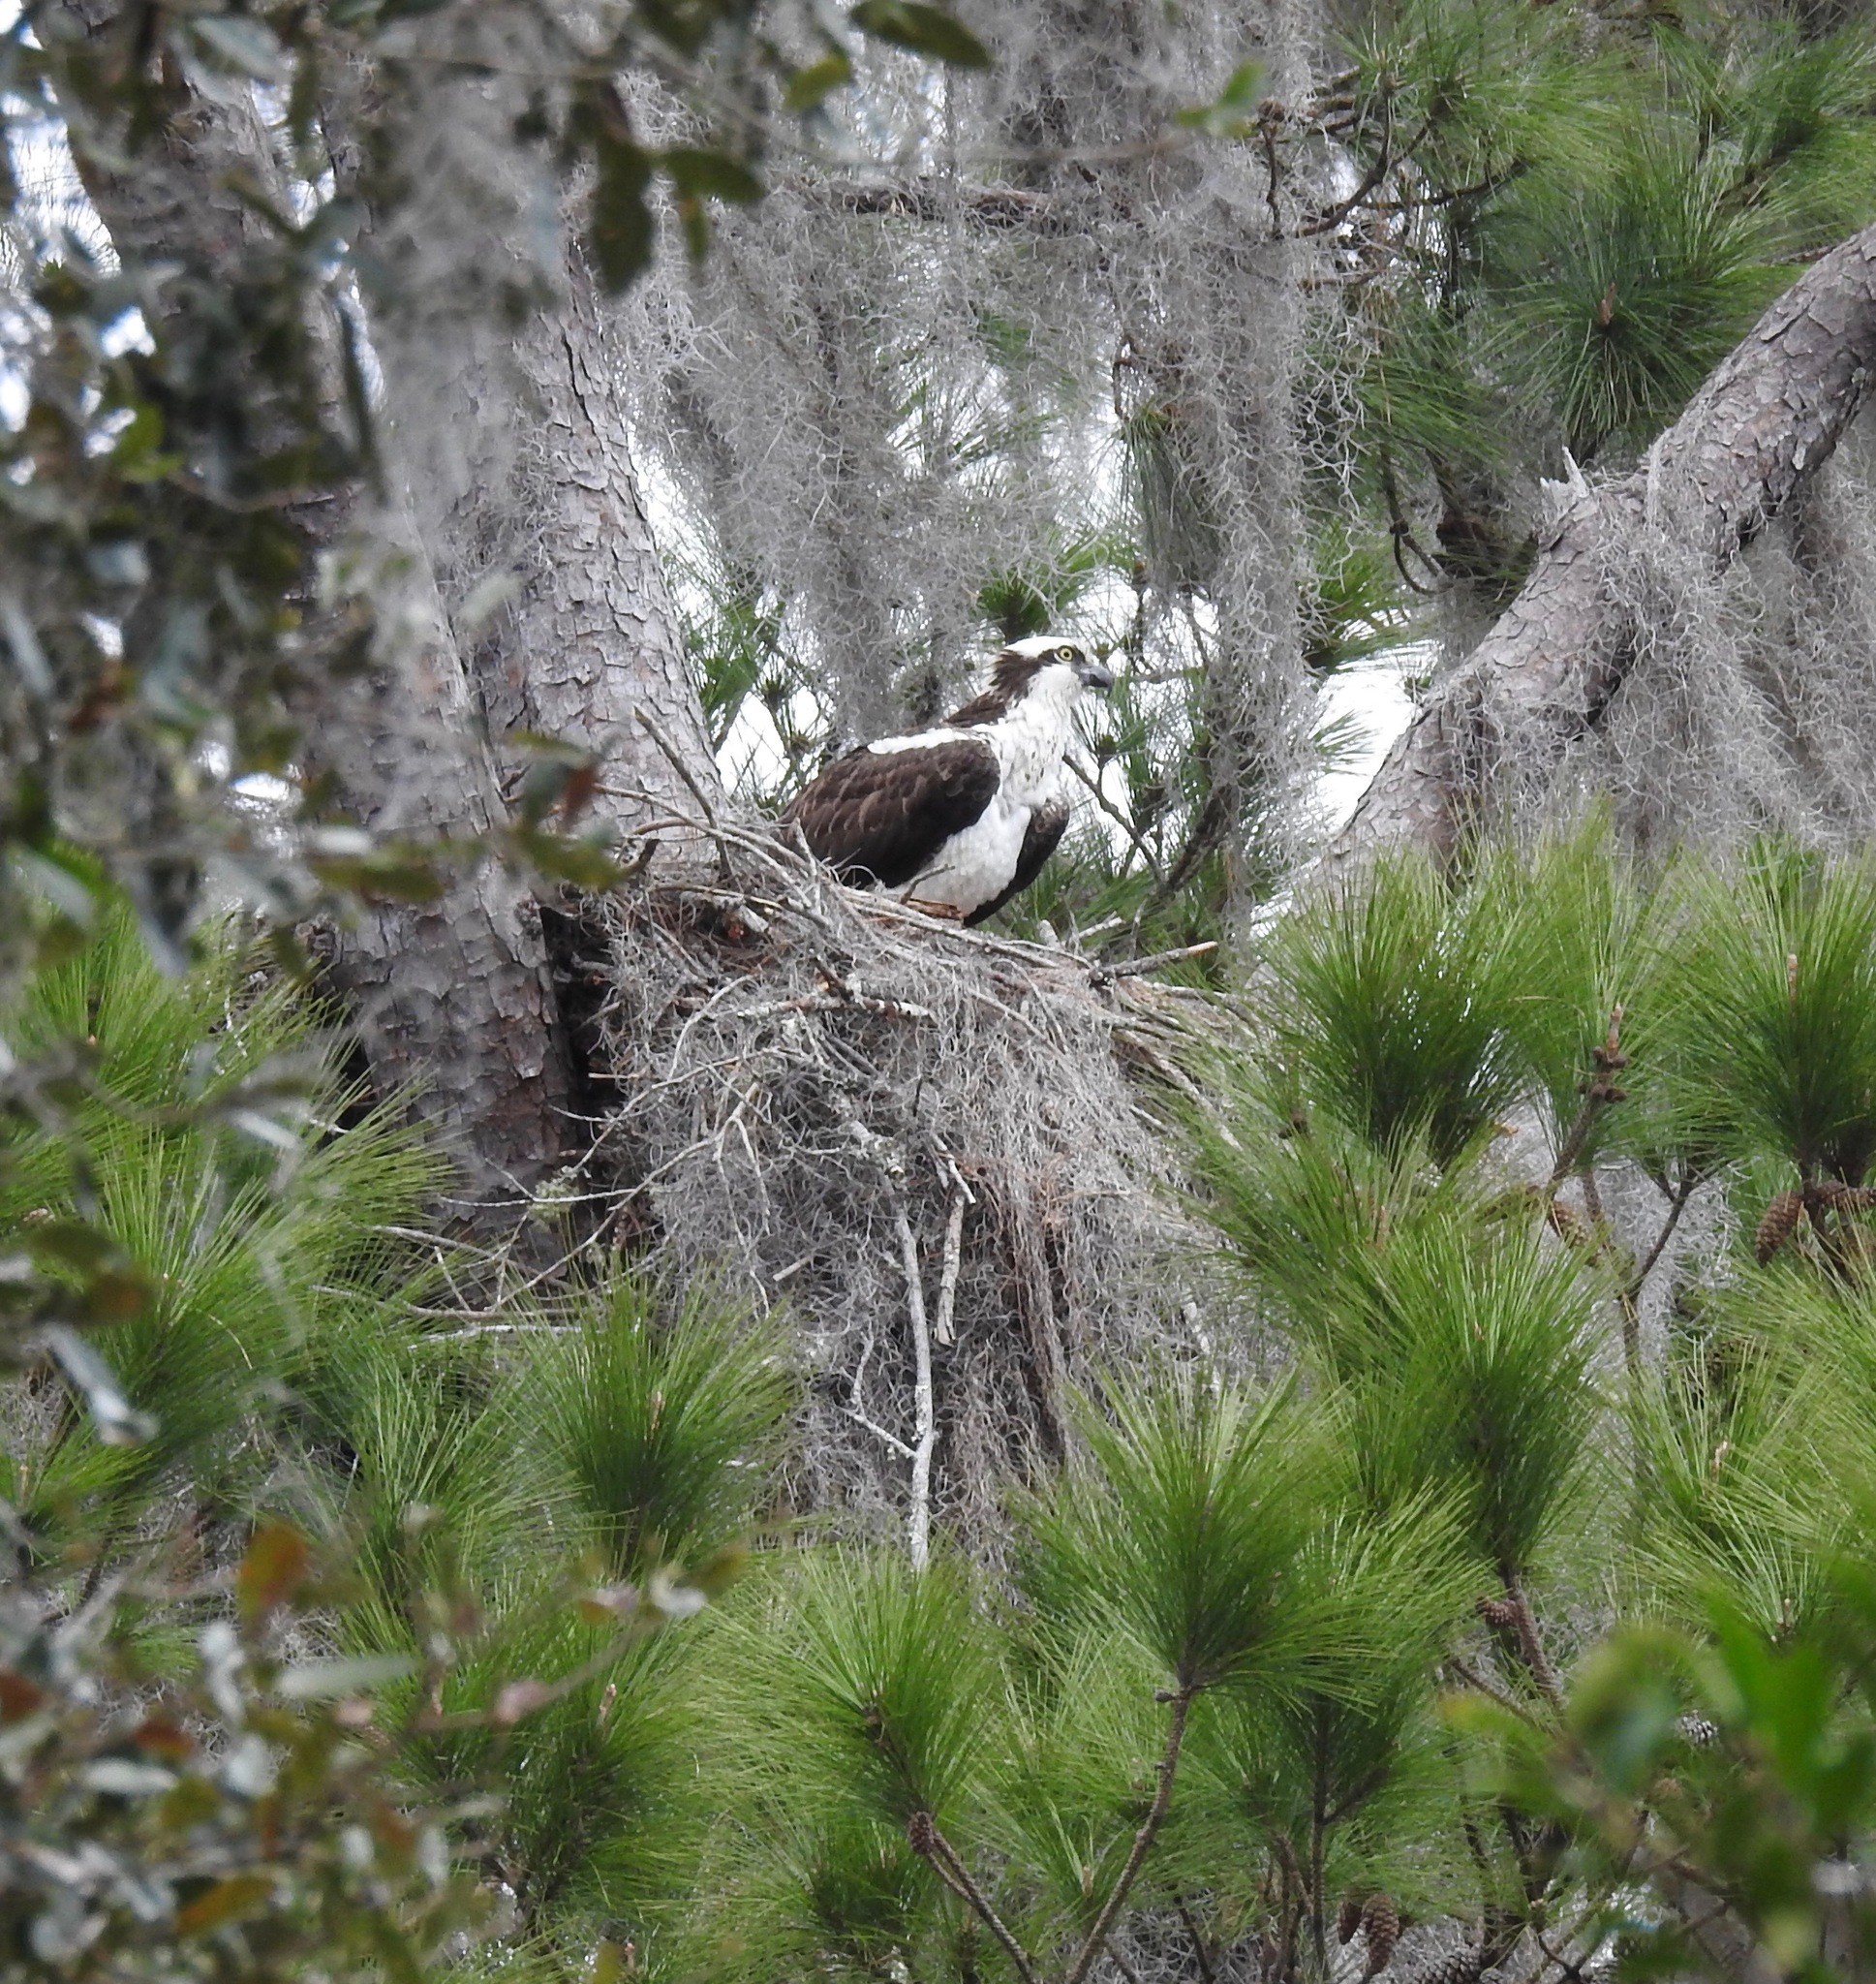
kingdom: Animalia
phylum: Chordata
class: Aves
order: Accipitriformes
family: Pandionidae
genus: Pandion
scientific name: Pandion haliaetus
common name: Osprey
